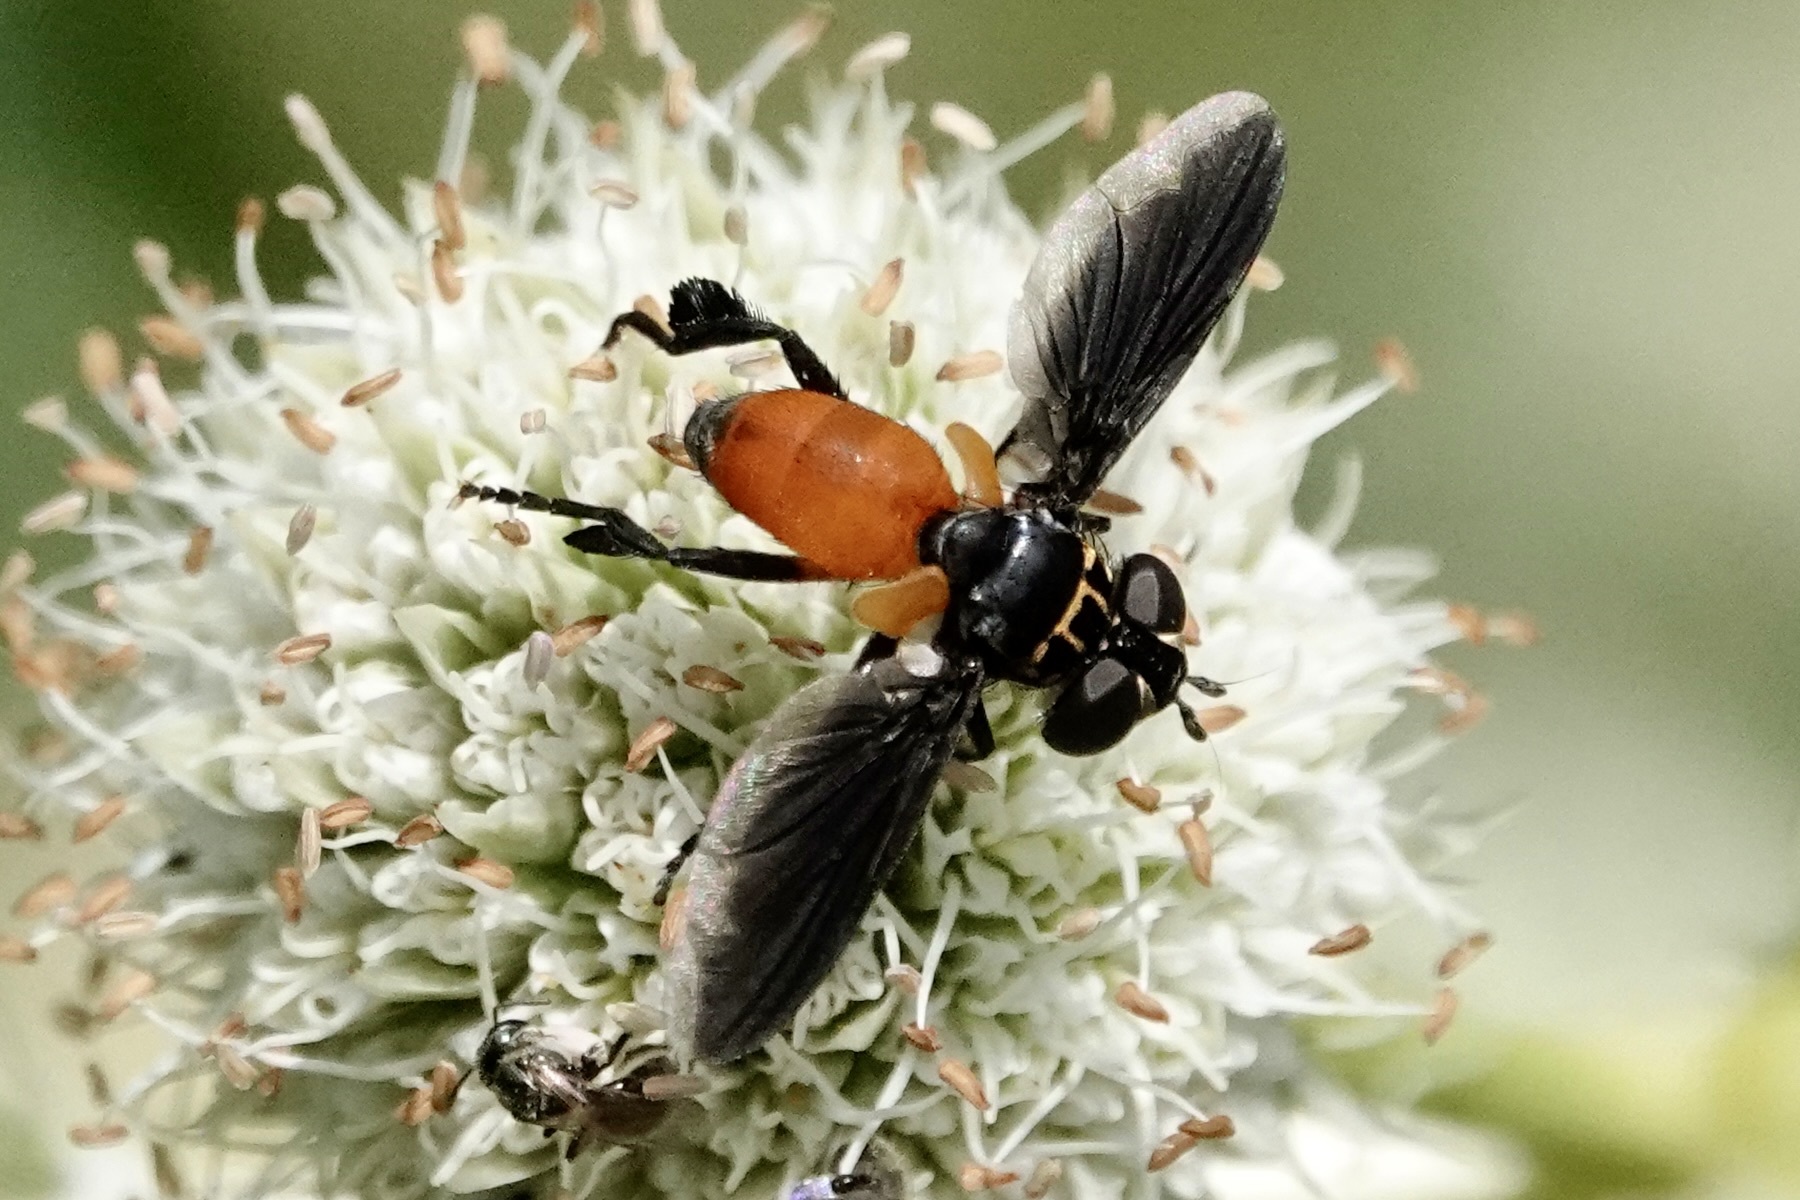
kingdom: Animalia
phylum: Arthropoda
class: Insecta
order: Diptera
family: Tachinidae
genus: Trichopoda
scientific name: Trichopoda pennipes
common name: Tachinid fly
